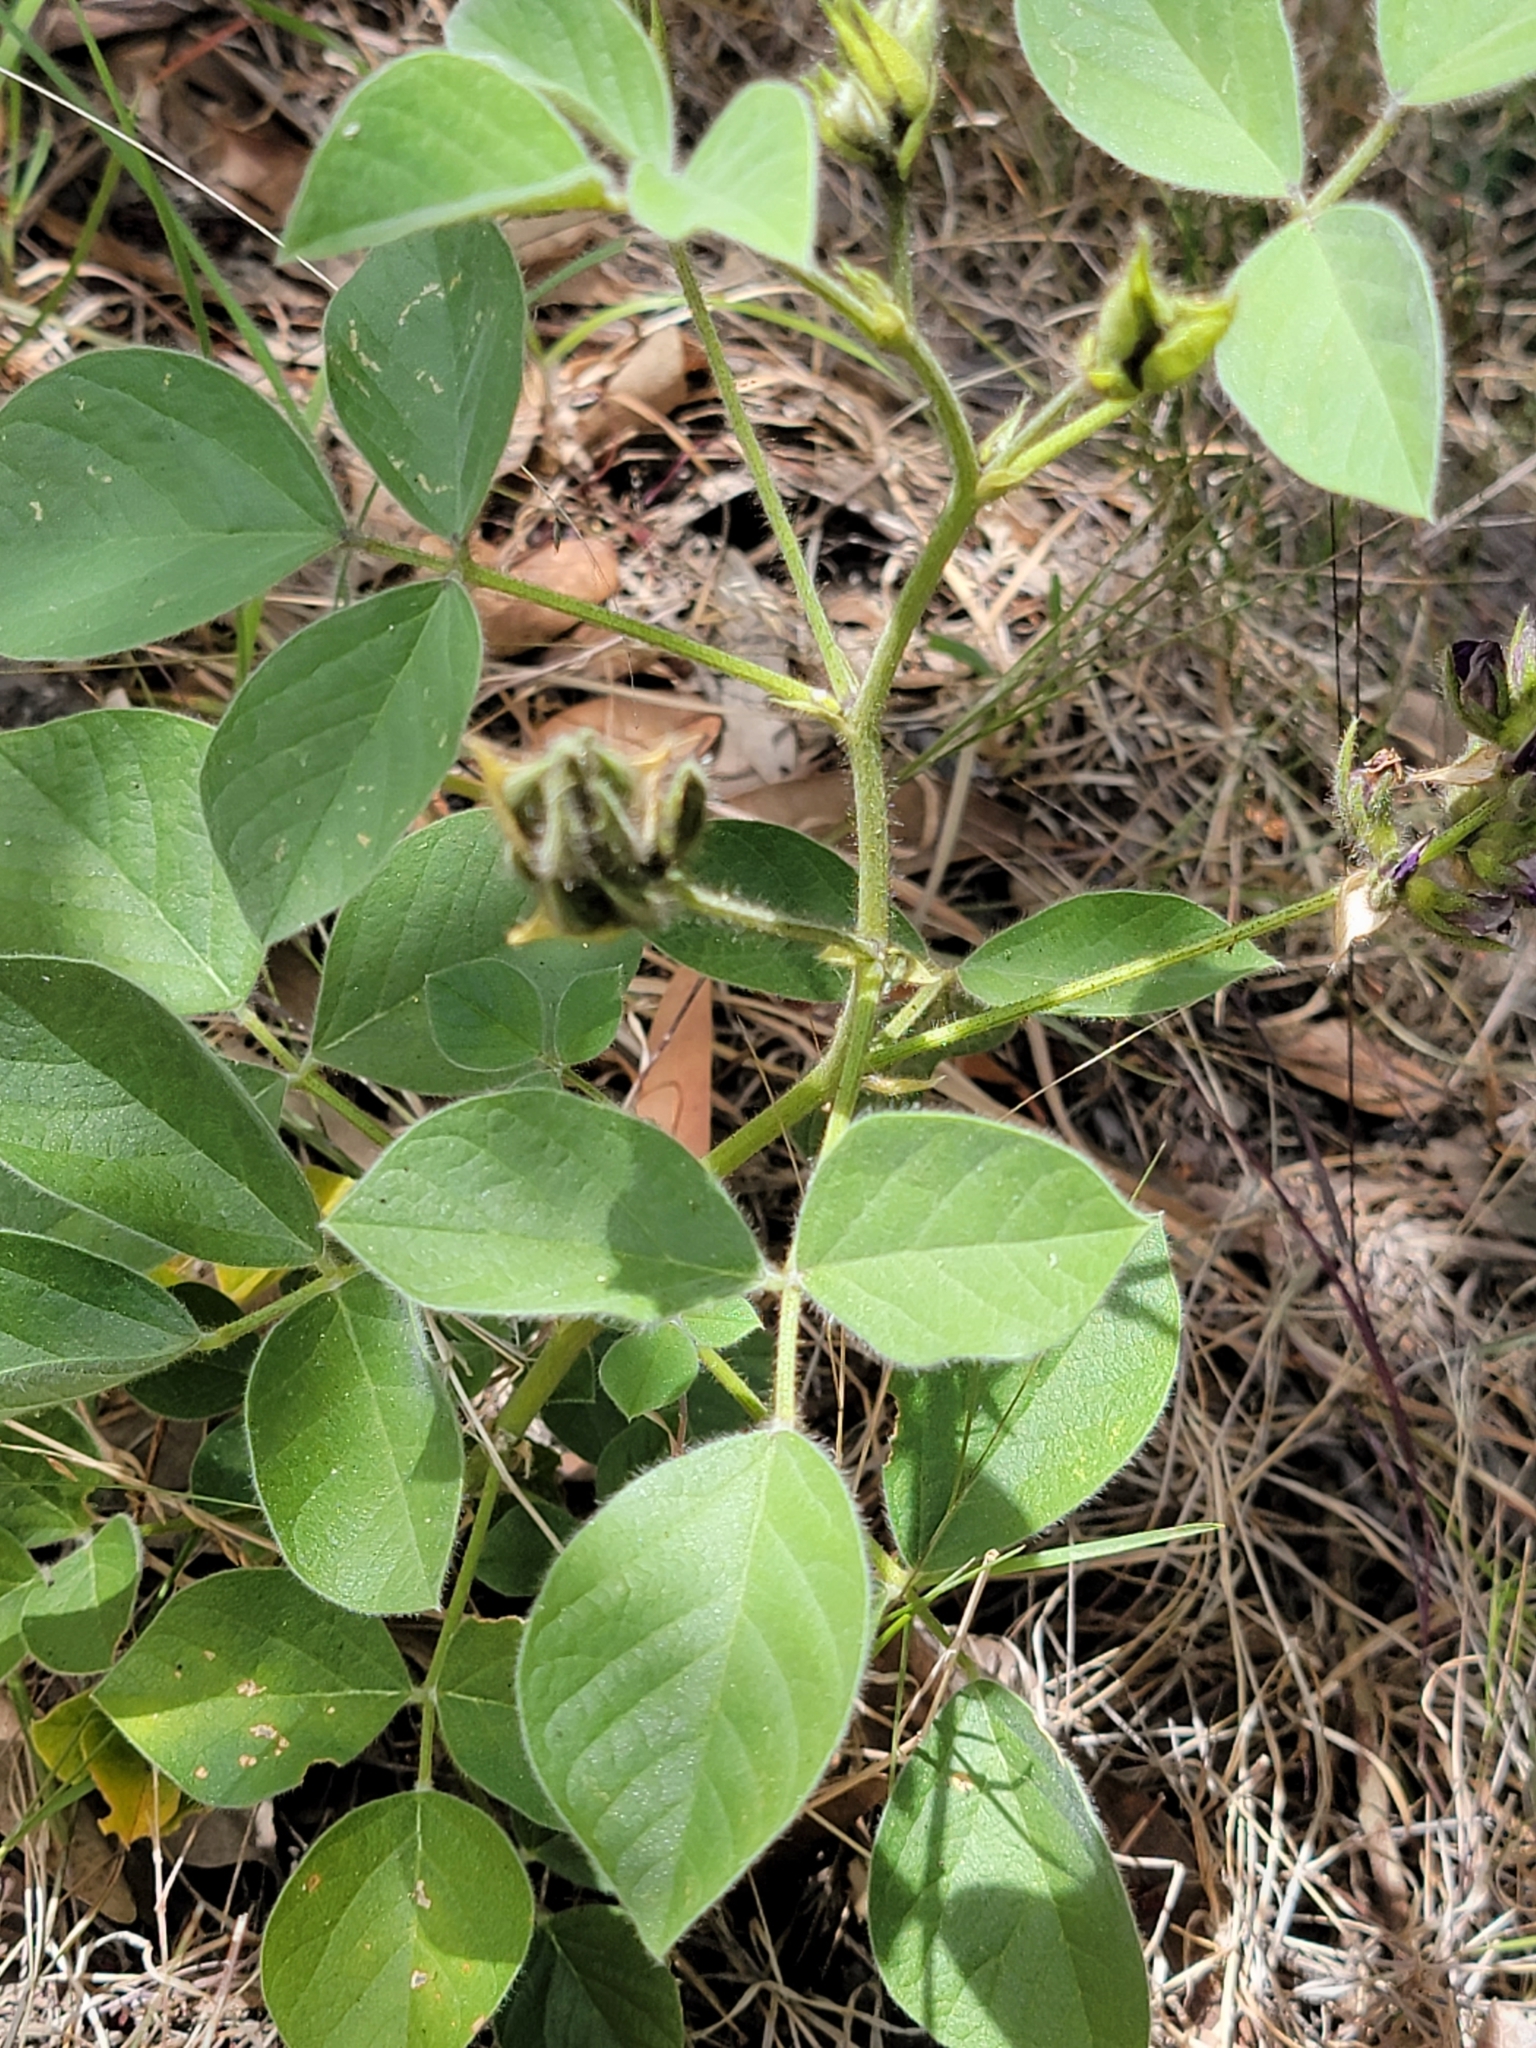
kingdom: Plantae
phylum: Tracheophyta
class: Magnoliopsida
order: Fabales
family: Fabaceae
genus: Hoita
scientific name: Hoita strobilina
